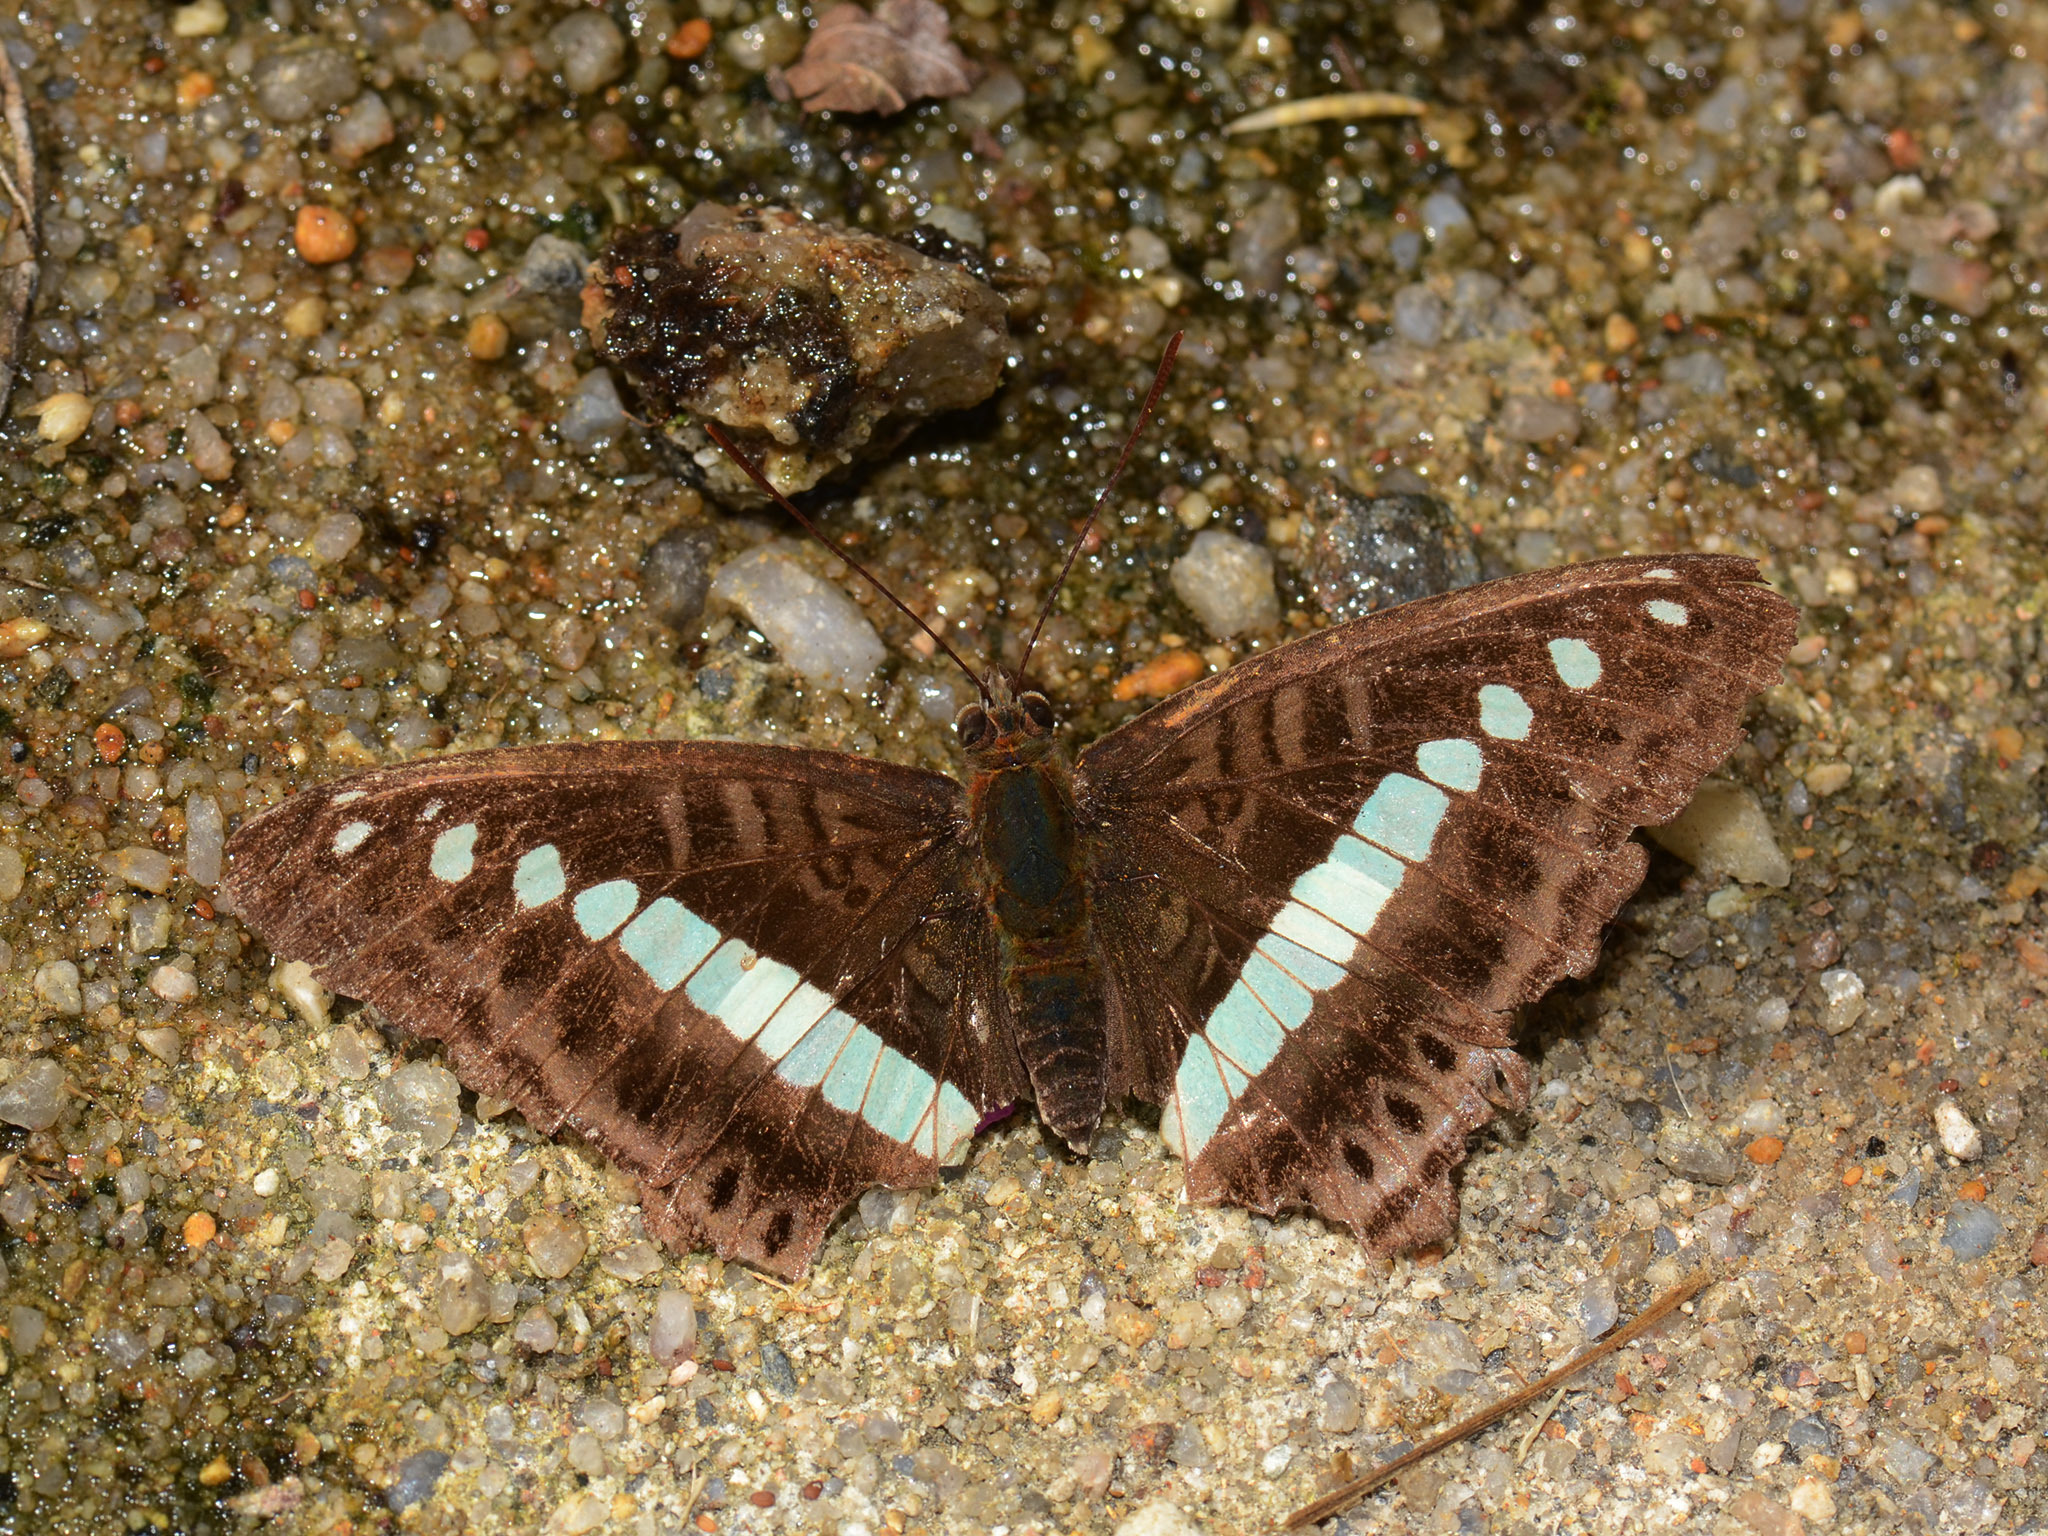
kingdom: Animalia
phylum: Arthropoda
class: Insecta
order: Lepidoptera
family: Nymphalidae
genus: Limenitis
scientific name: Limenitis Sumalia daraxa
